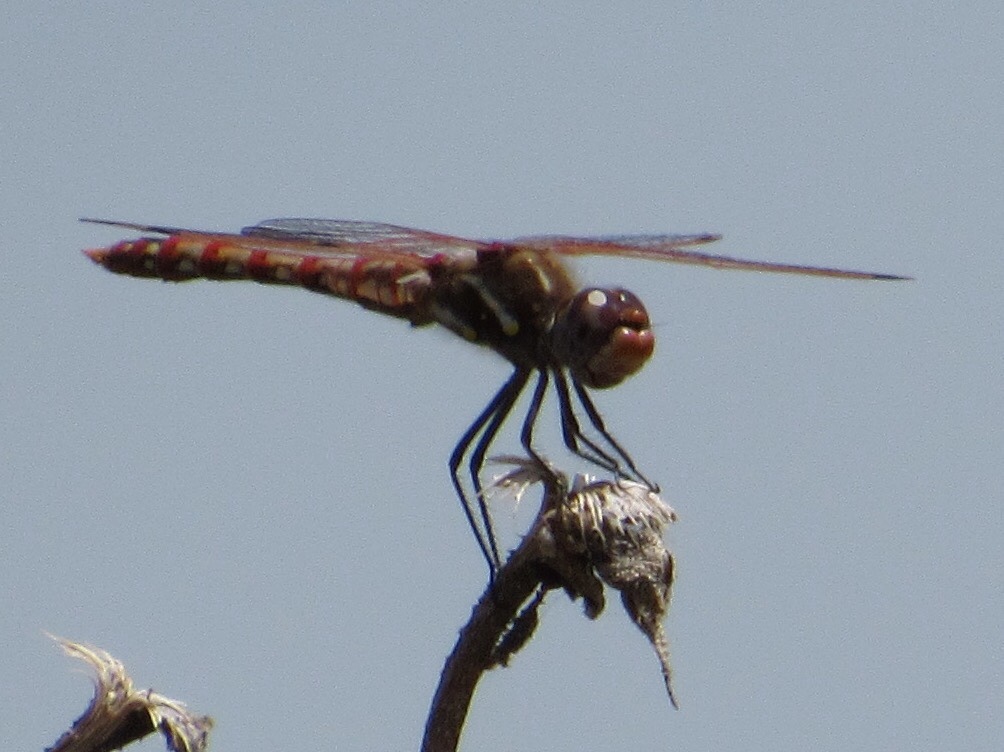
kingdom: Animalia
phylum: Arthropoda
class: Insecta
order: Odonata
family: Libellulidae
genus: Sympetrum
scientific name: Sympetrum corruptum
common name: Variegated meadowhawk
